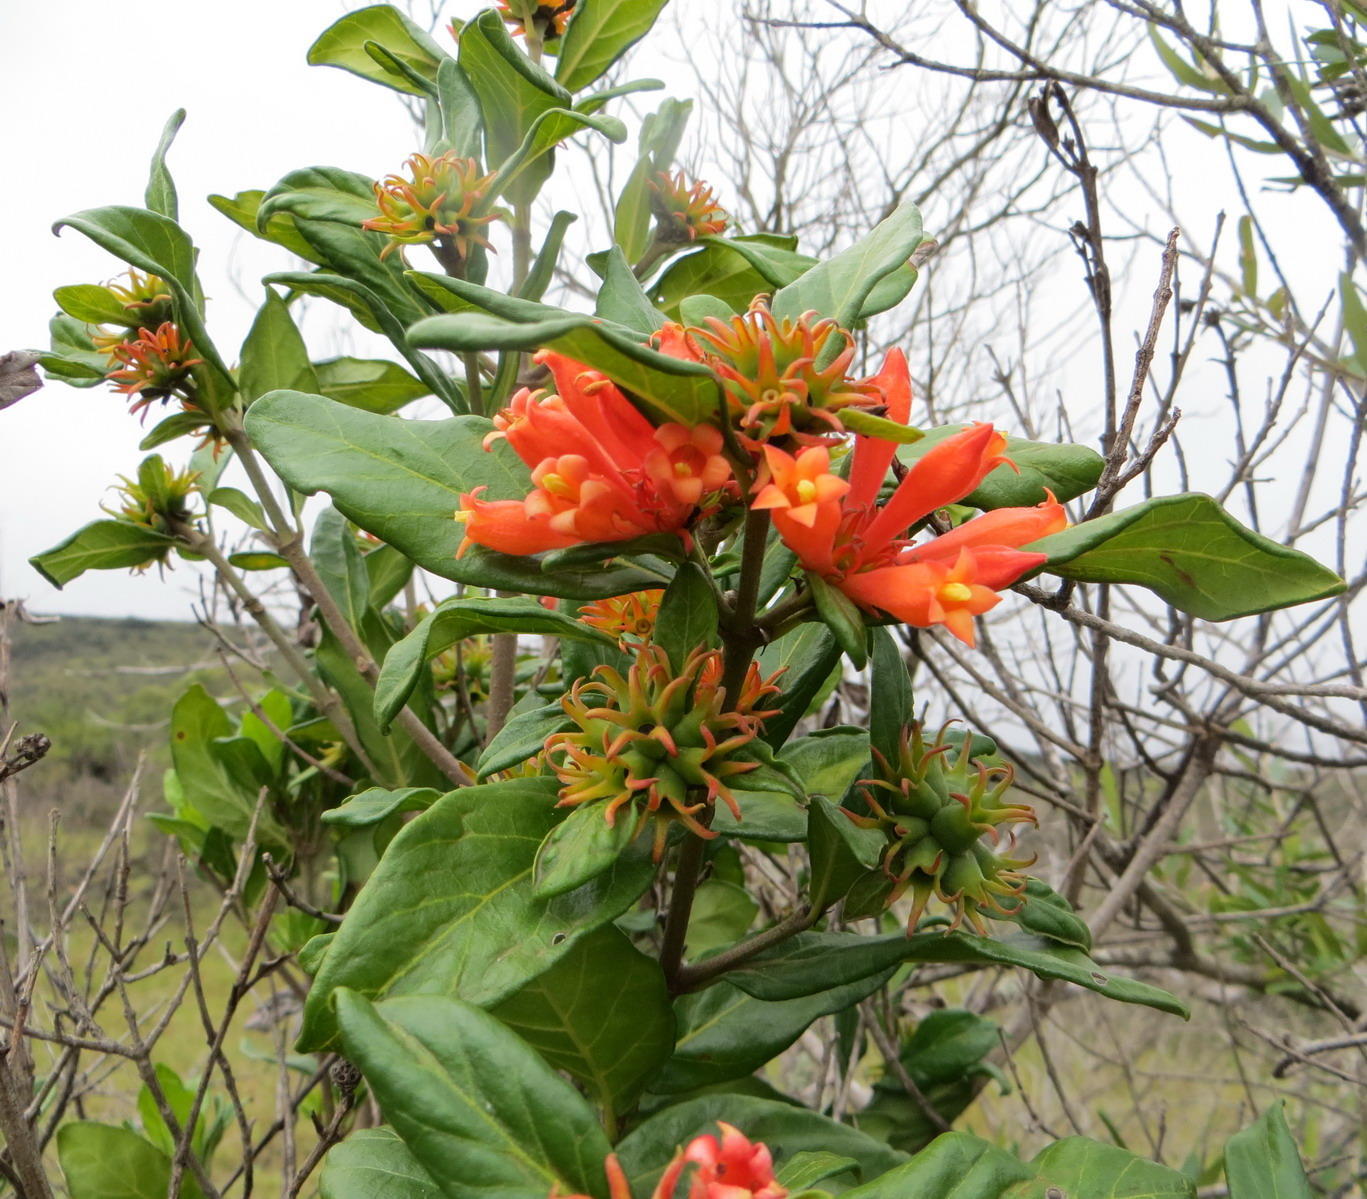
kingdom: Plantae
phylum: Tracheophyta
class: Magnoliopsida
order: Gentianales
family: Rubiaceae
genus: Burchellia
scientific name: Burchellia bubalina
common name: Wild pomegranate
